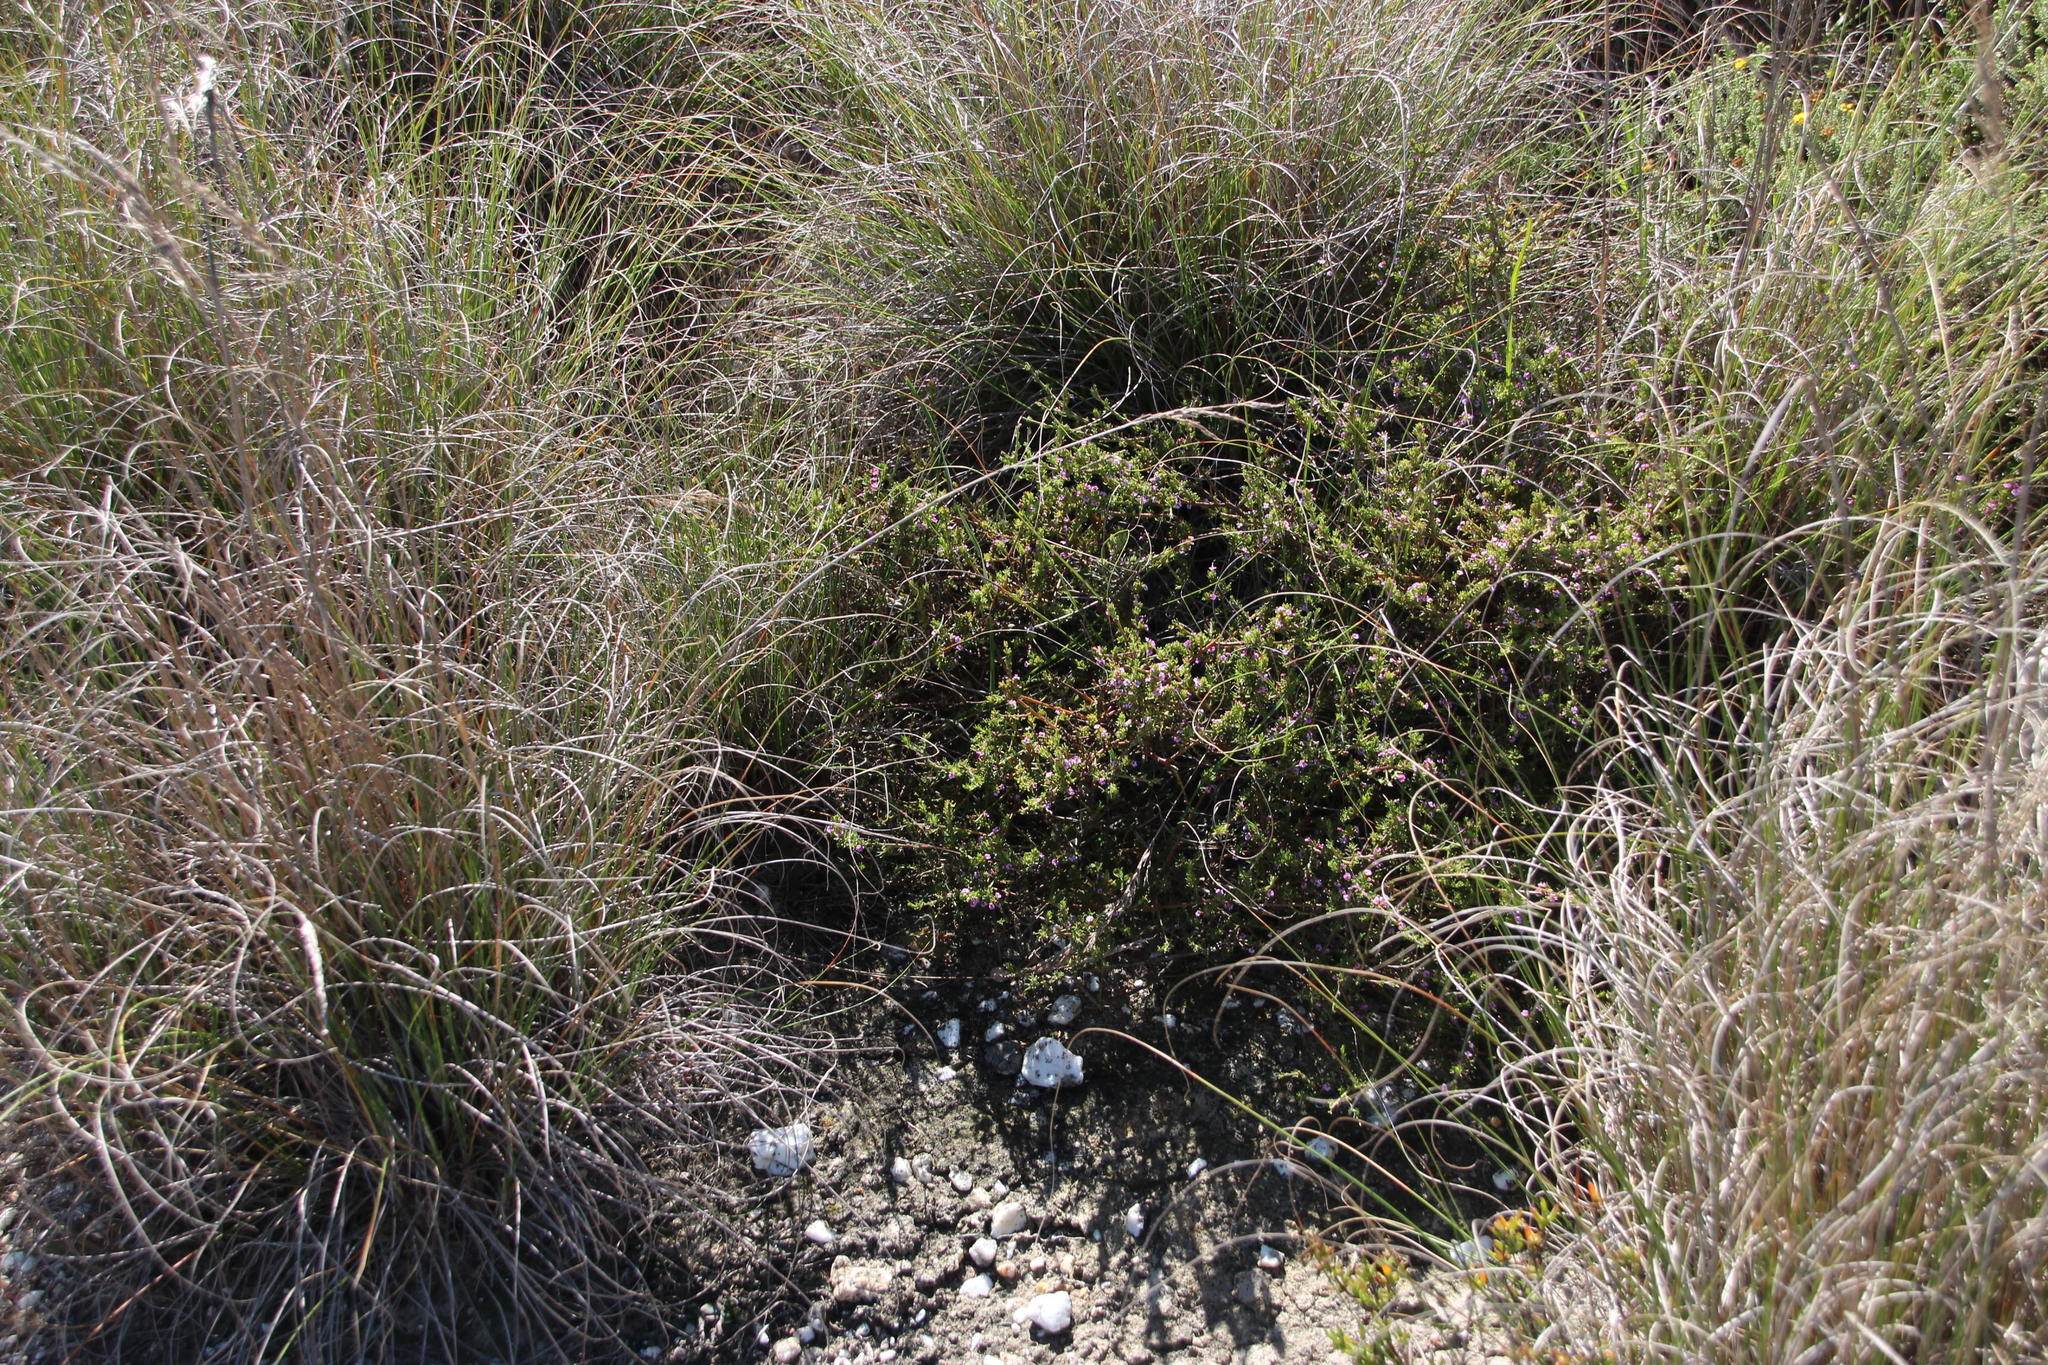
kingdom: Plantae
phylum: Tracheophyta
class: Liliopsida
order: Poales
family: Poaceae
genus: Pentameris
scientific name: Pentameris eriostoma
